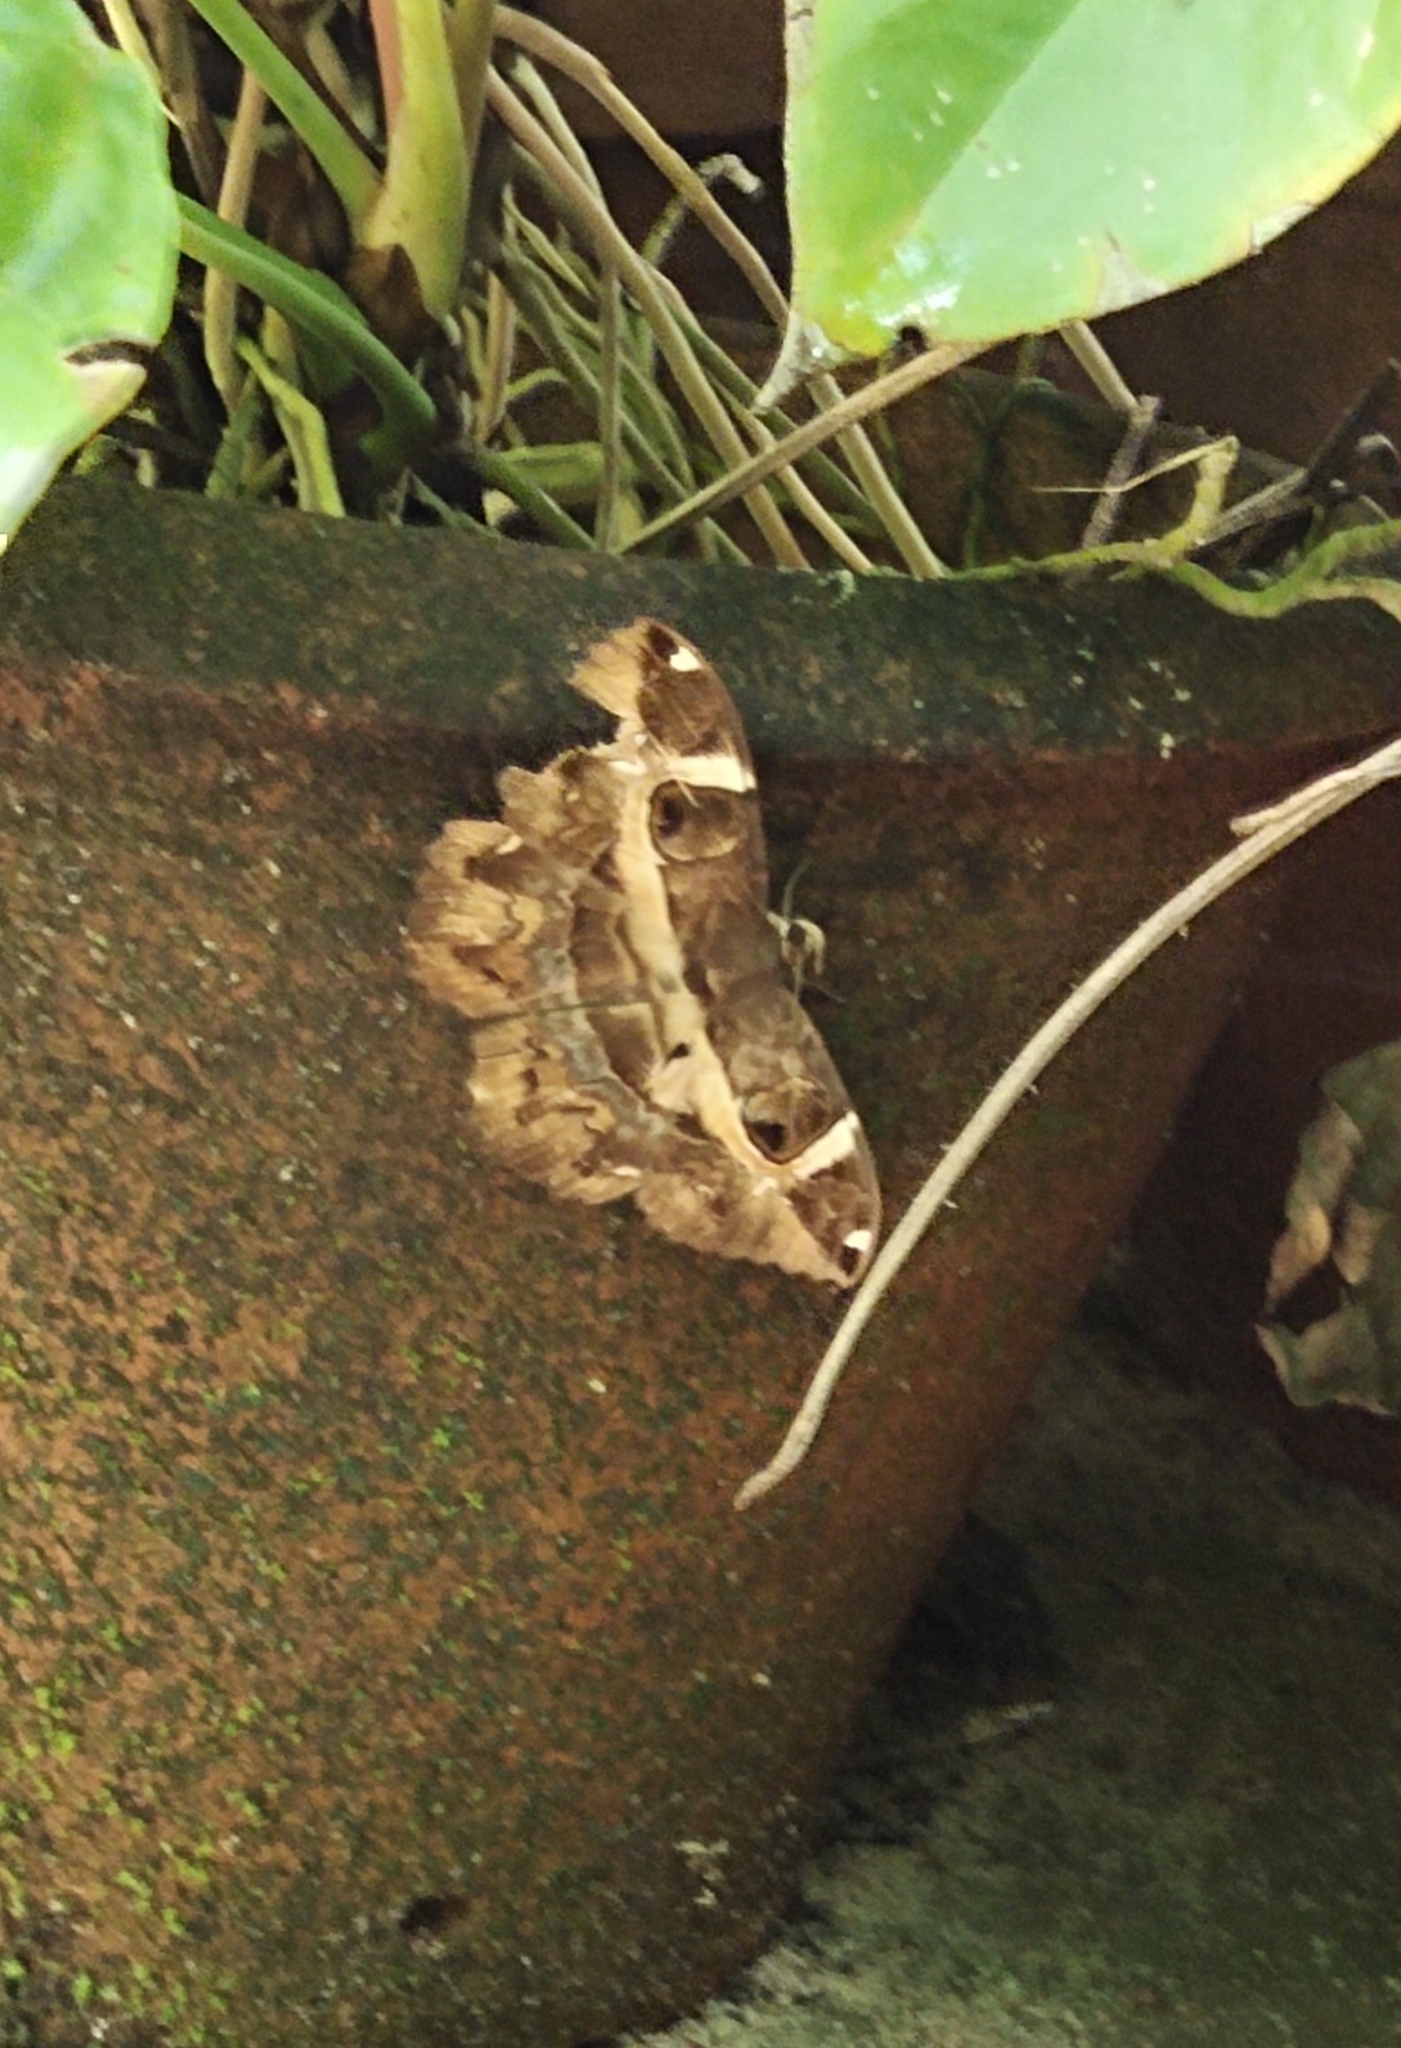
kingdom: Animalia
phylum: Arthropoda
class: Insecta
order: Lepidoptera
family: Erebidae
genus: Erebus
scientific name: Erebus ephesperis
